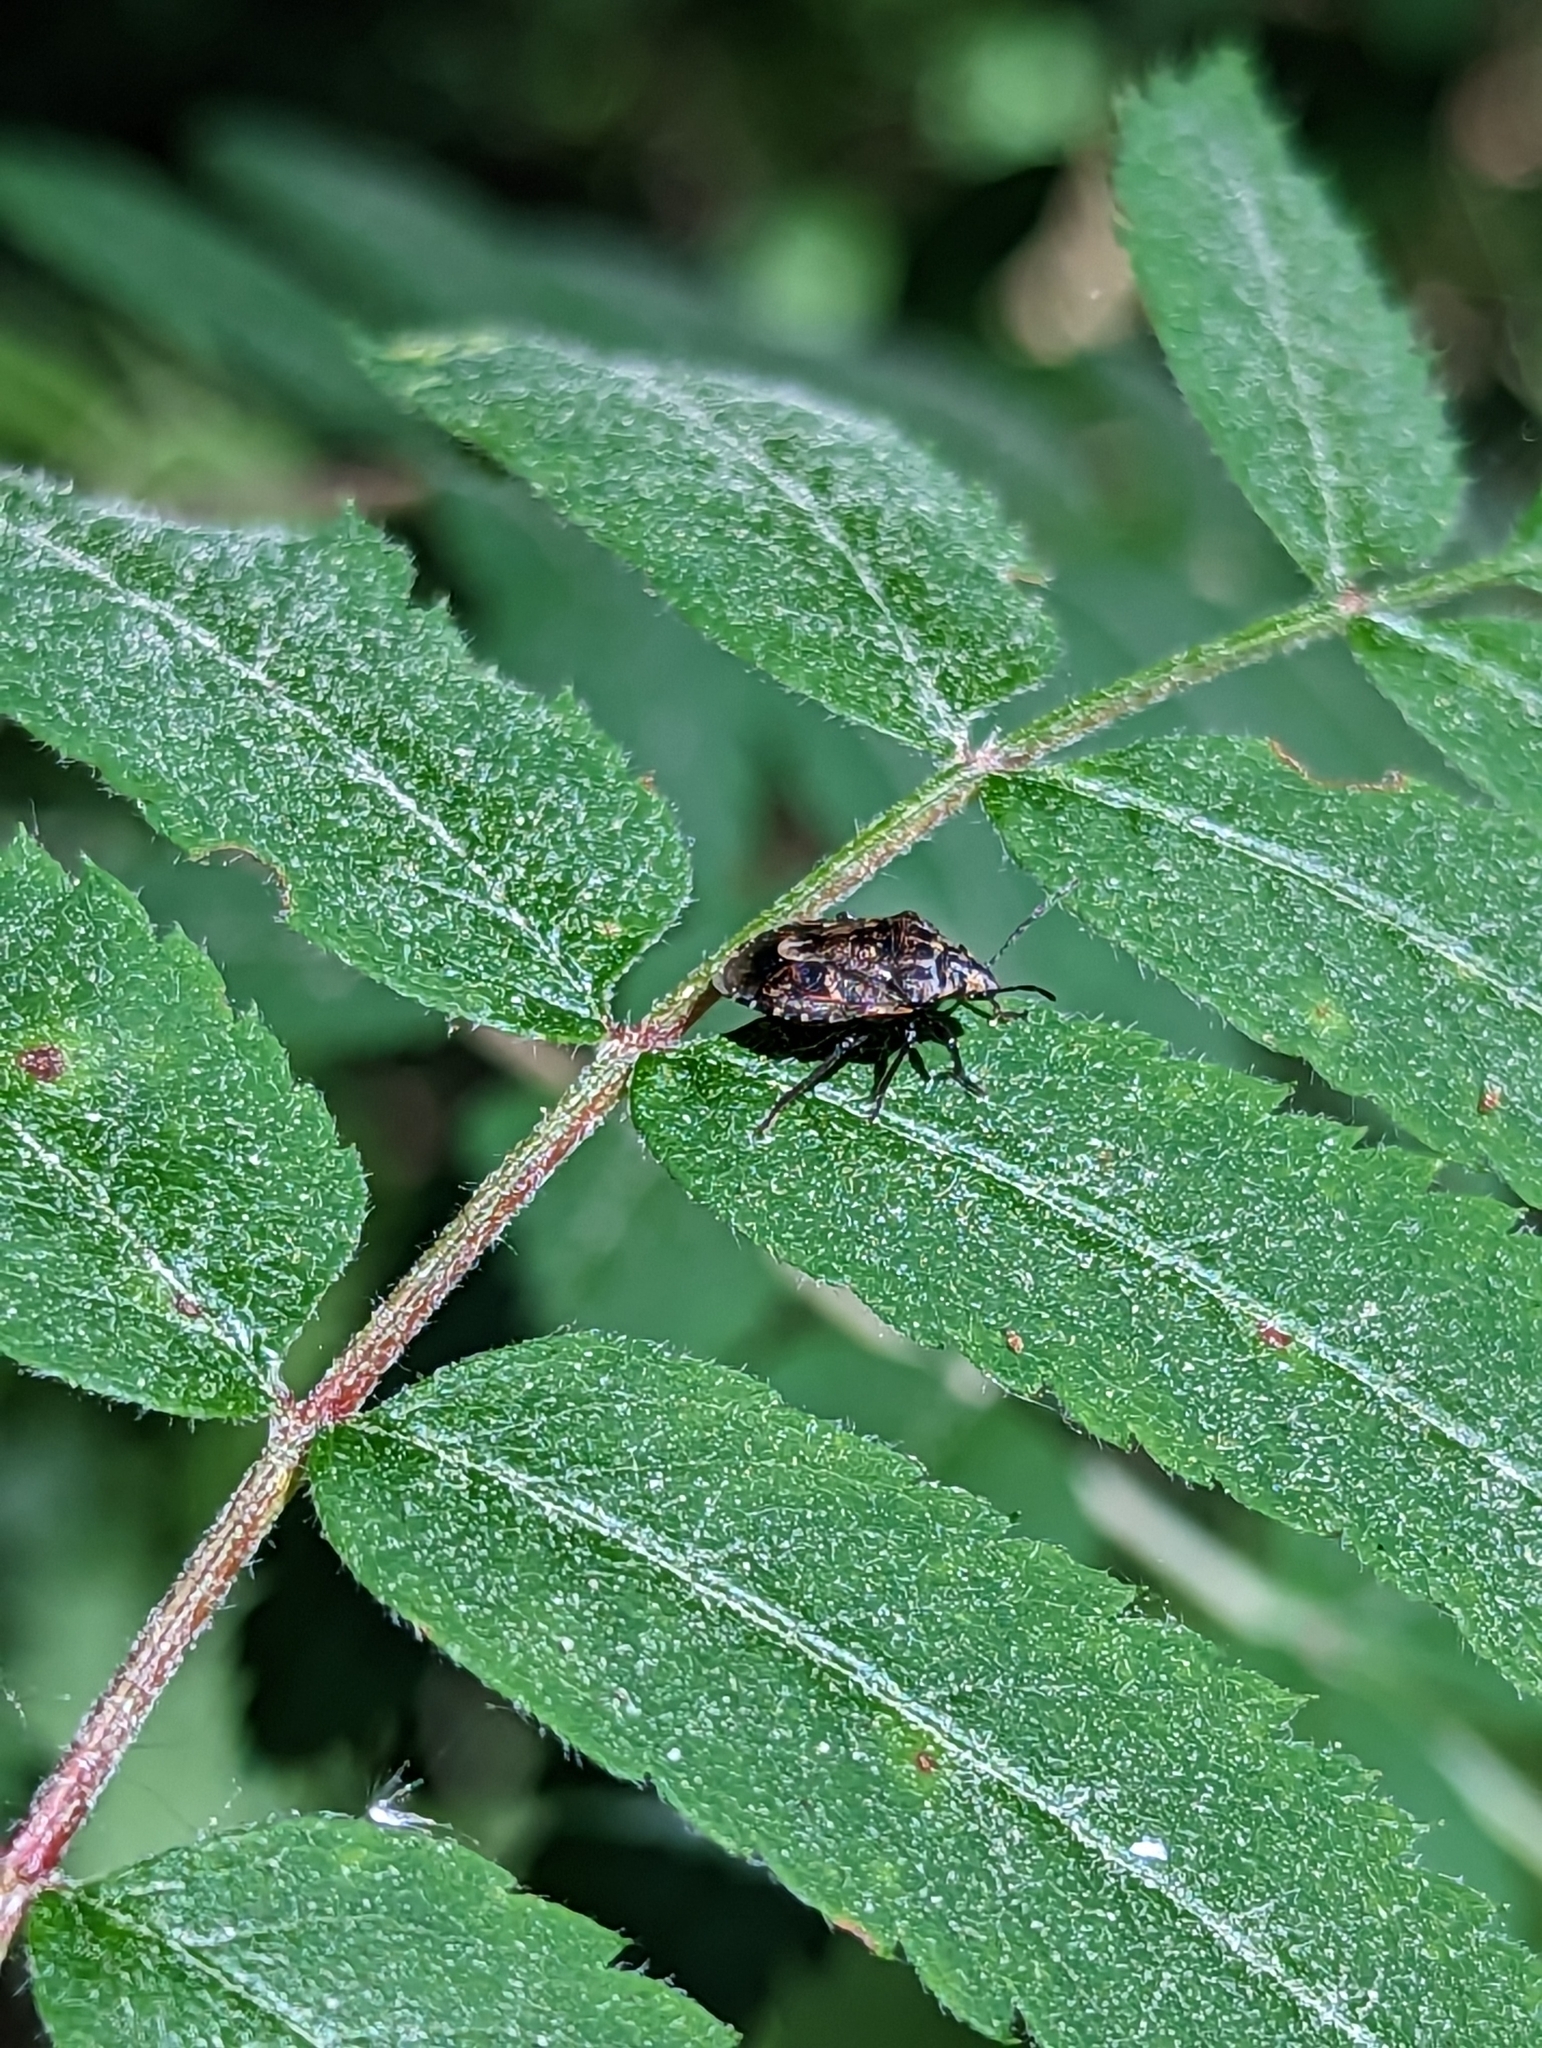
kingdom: Animalia
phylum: Arthropoda
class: Insecta
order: Hemiptera
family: Pentatomidae
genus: Holcogaster
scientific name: Holcogaster fibulata
